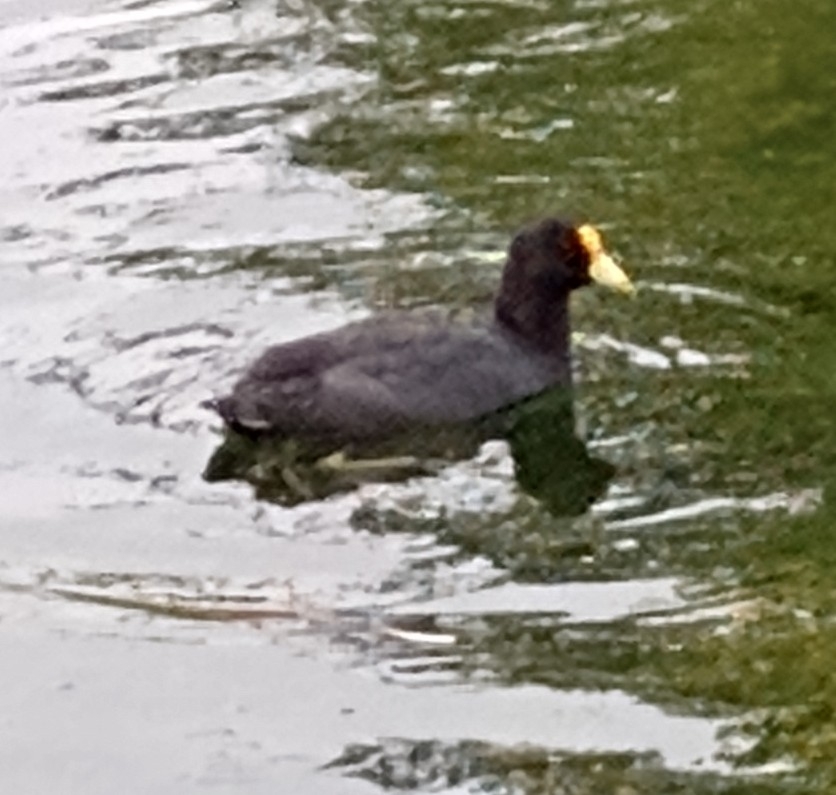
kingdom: Animalia
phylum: Chordata
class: Aves
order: Gruiformes
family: Rallidae
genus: Fulica
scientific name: Fulica leucoptera
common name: White-winged coot
